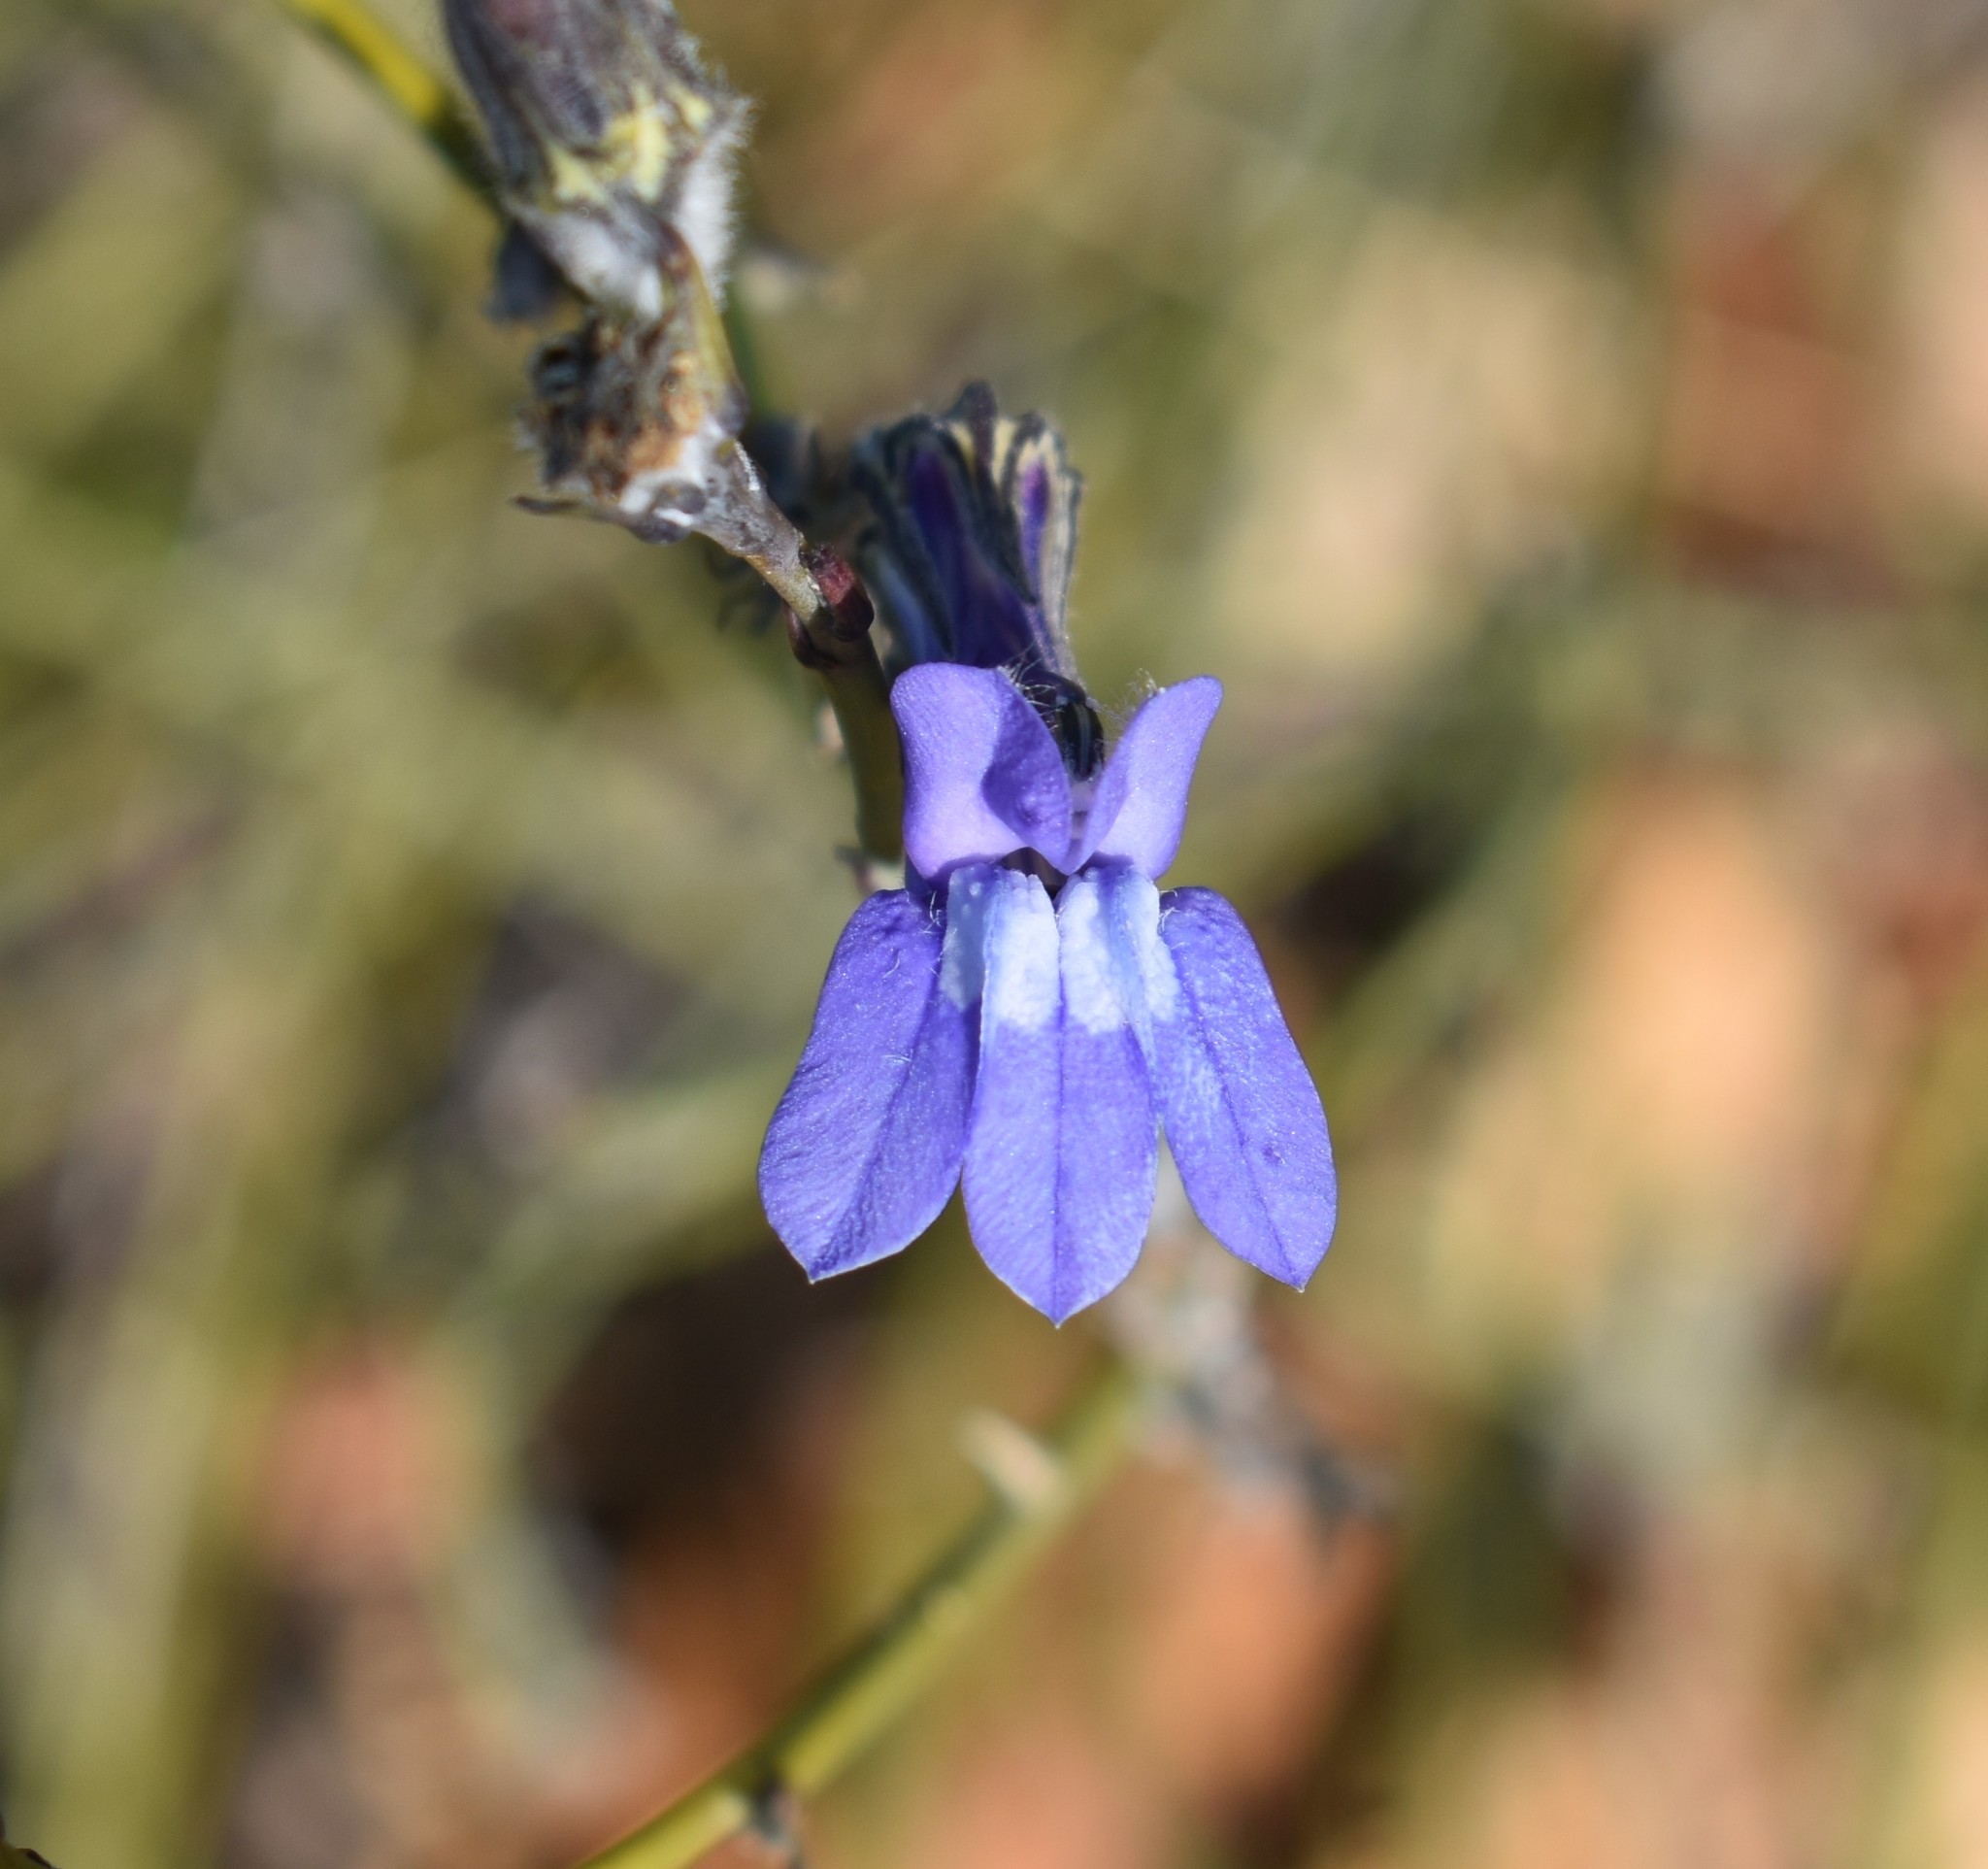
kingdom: Plantae
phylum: Tracheophyta
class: Magnoliopsida
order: Asterales
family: Campanulaceae
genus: Lobelia
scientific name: Lobelia linearis
